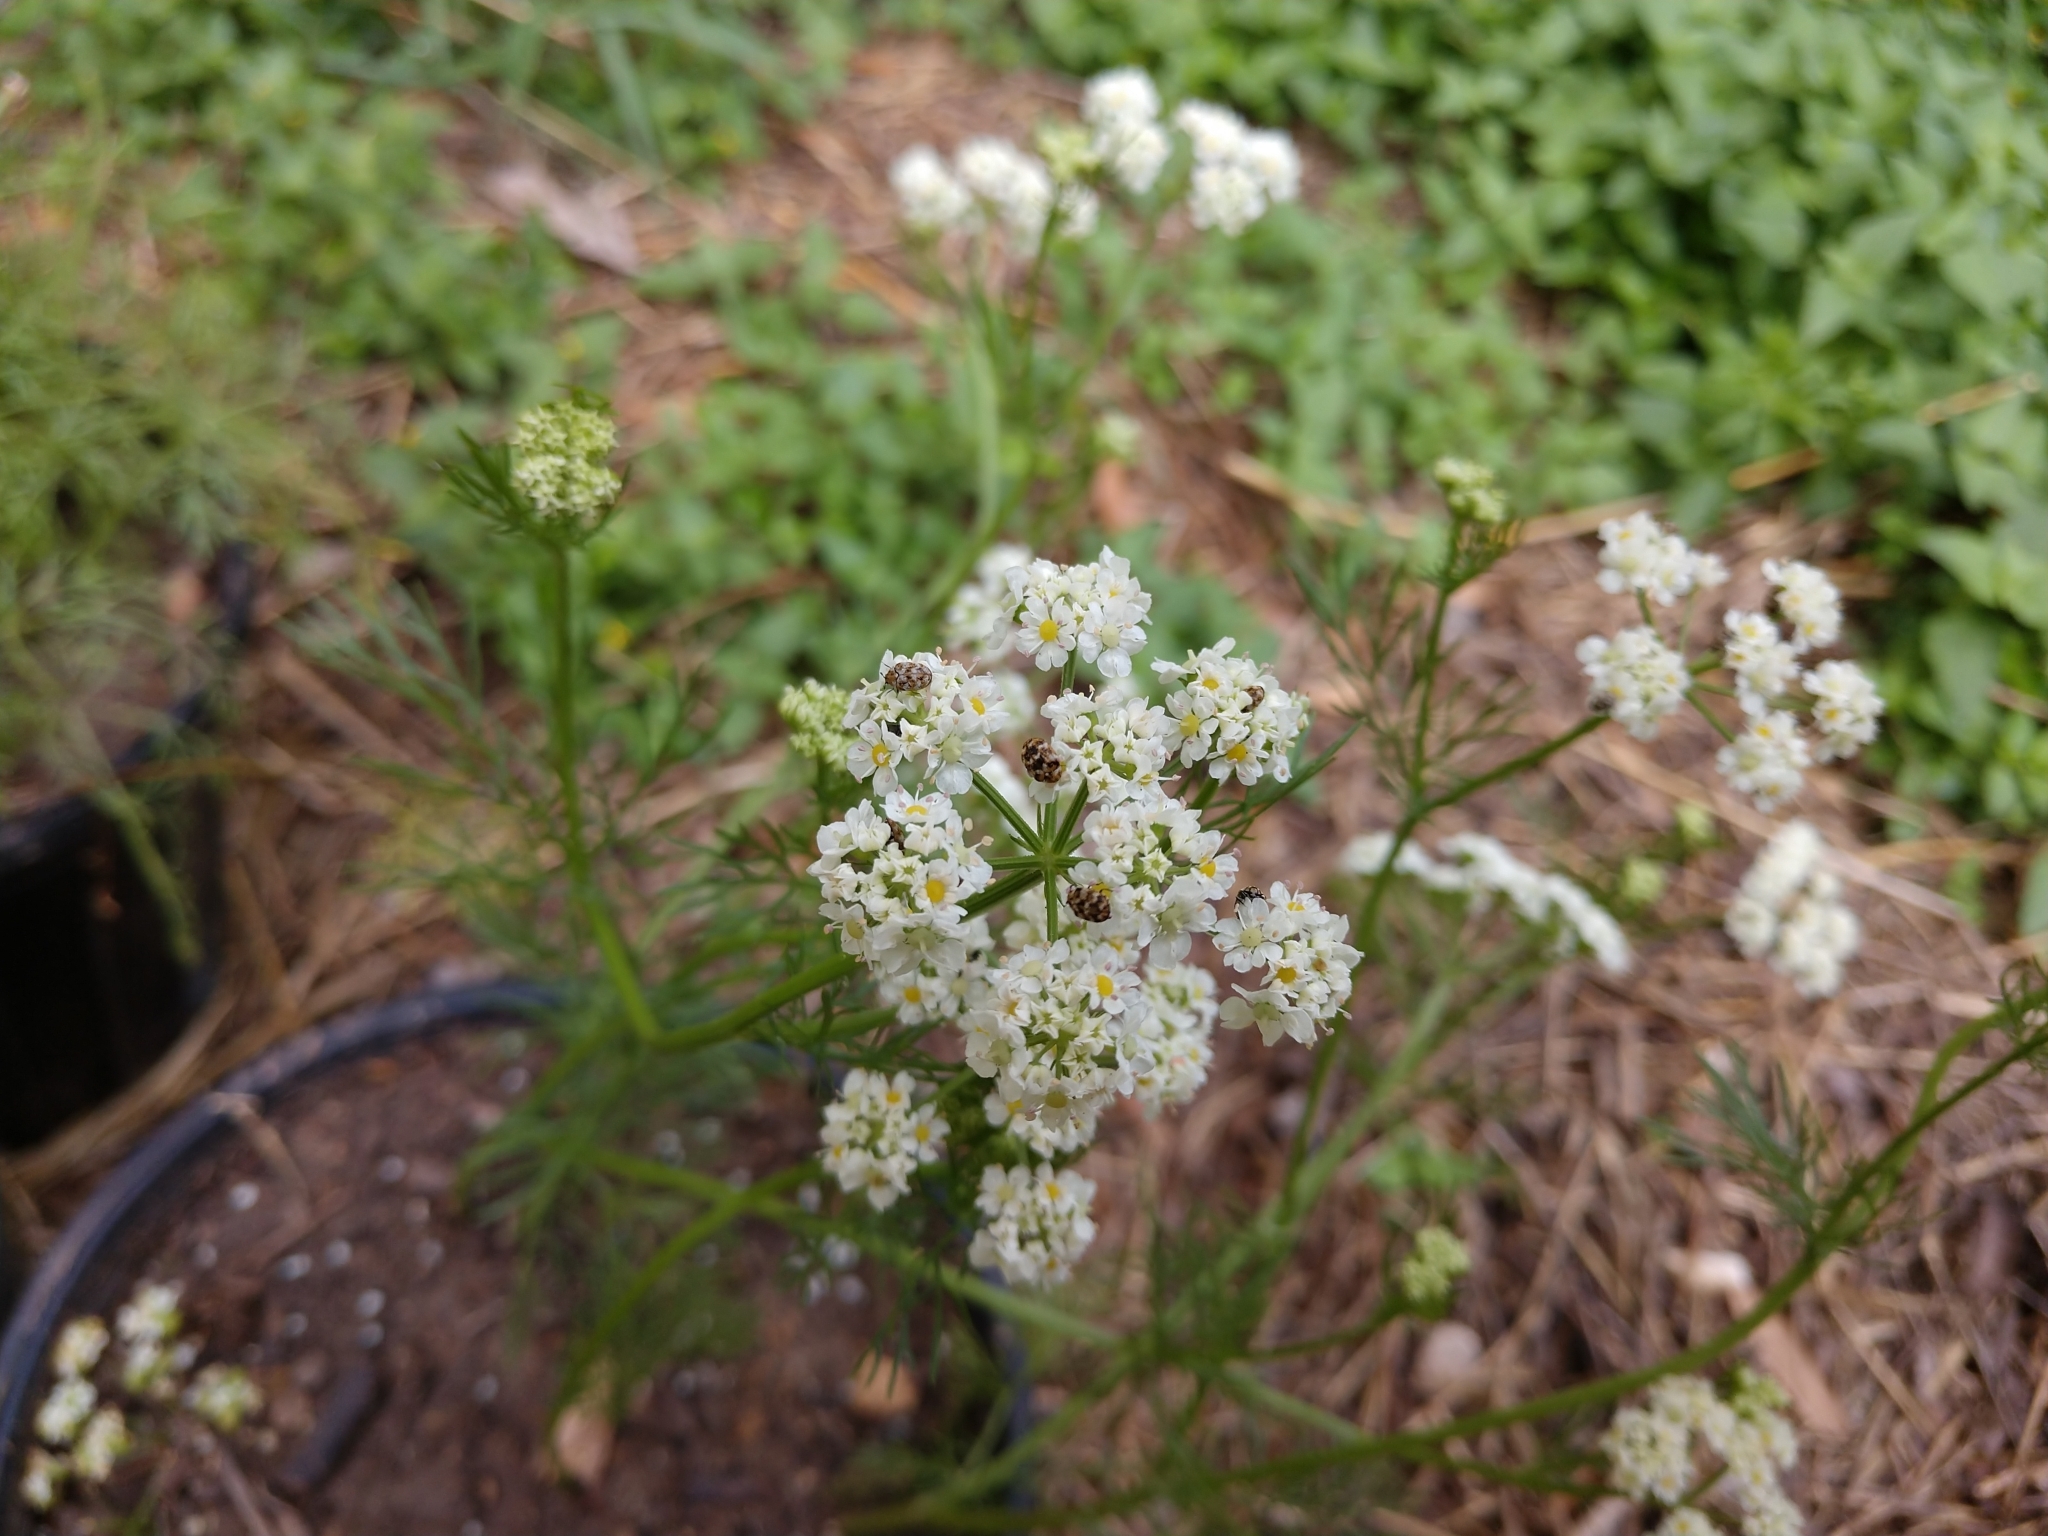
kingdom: Animalia
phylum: Arthropoda
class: Insecta
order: Coleoptera
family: Dermestidae
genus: Anthrenus
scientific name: Anthrenus verbasci
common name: Varied carpet beetle
